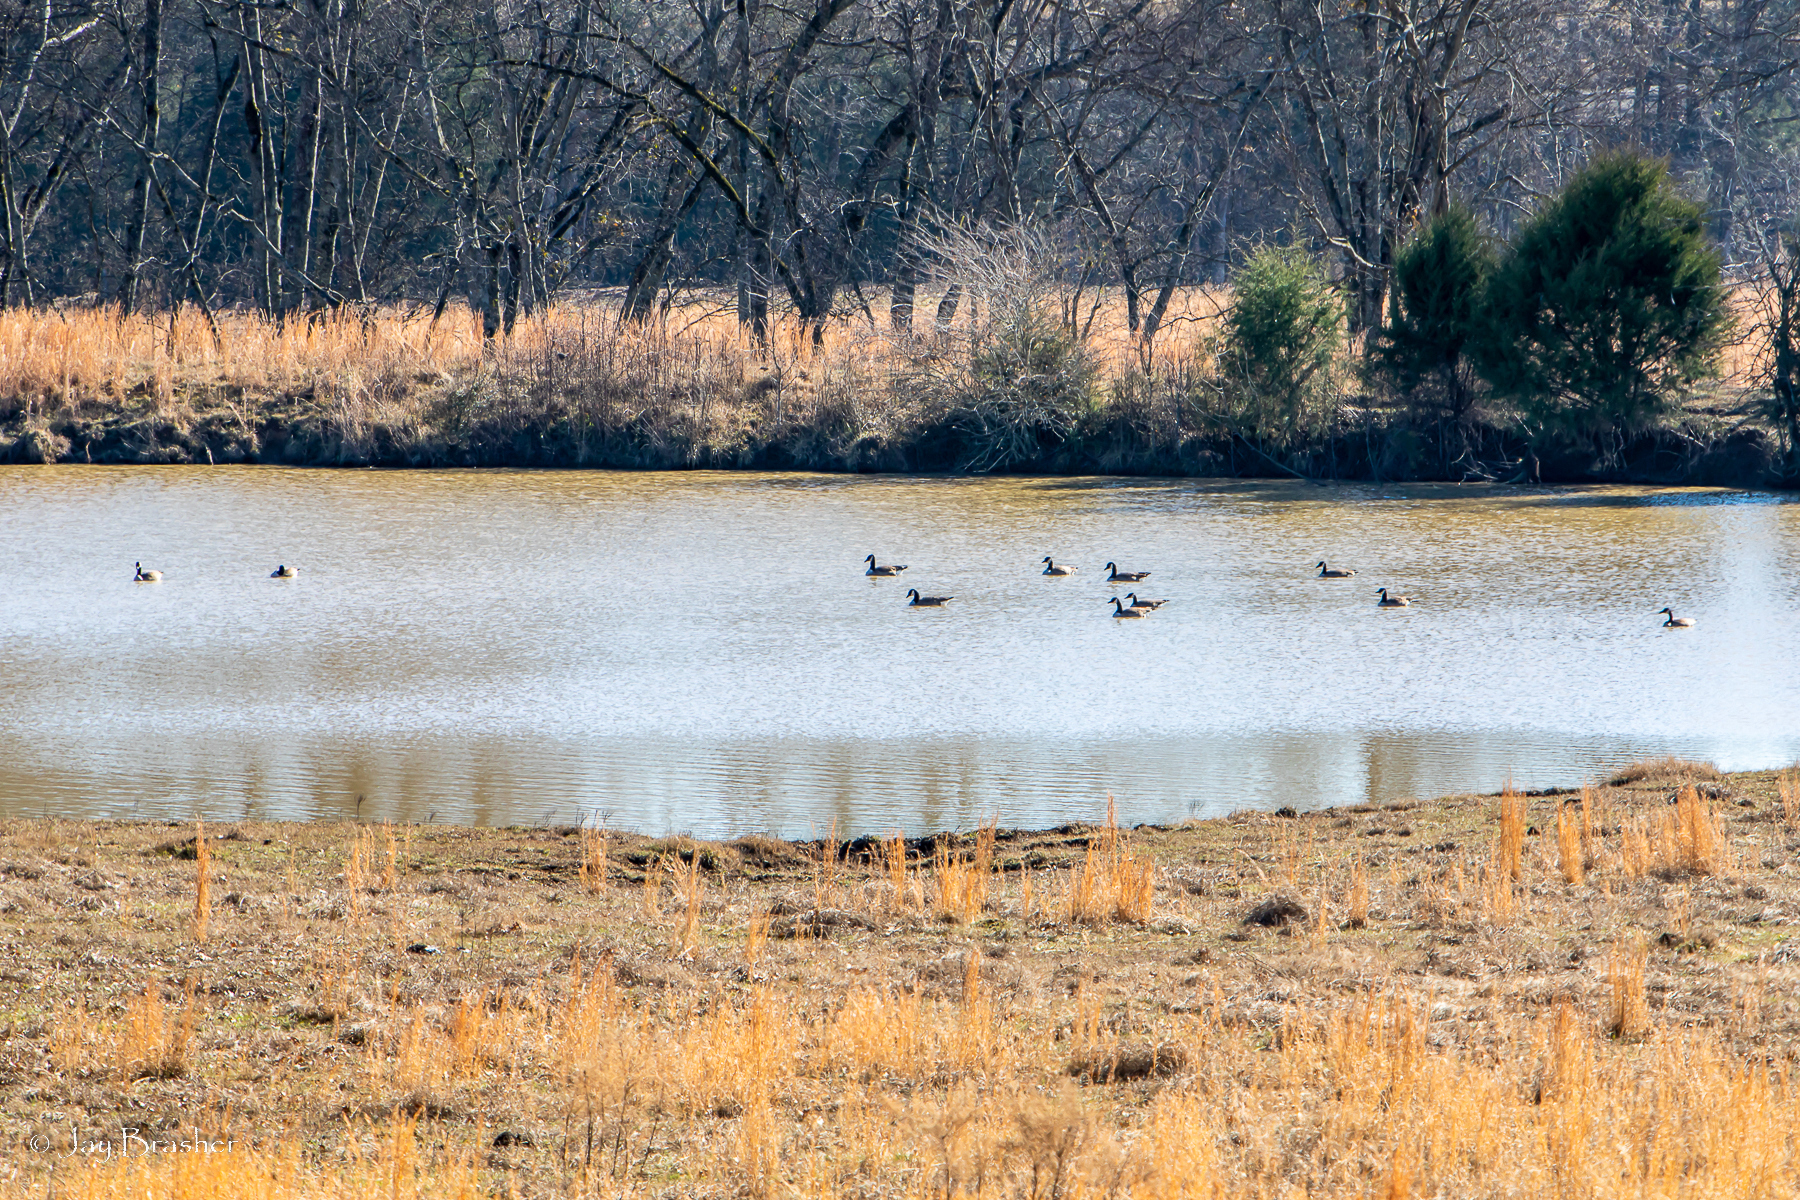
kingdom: Animalia
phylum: Chordata
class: Aves
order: Anseriformes
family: Anatidae
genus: Branta
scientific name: Branta canadensis
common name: Canada goose
